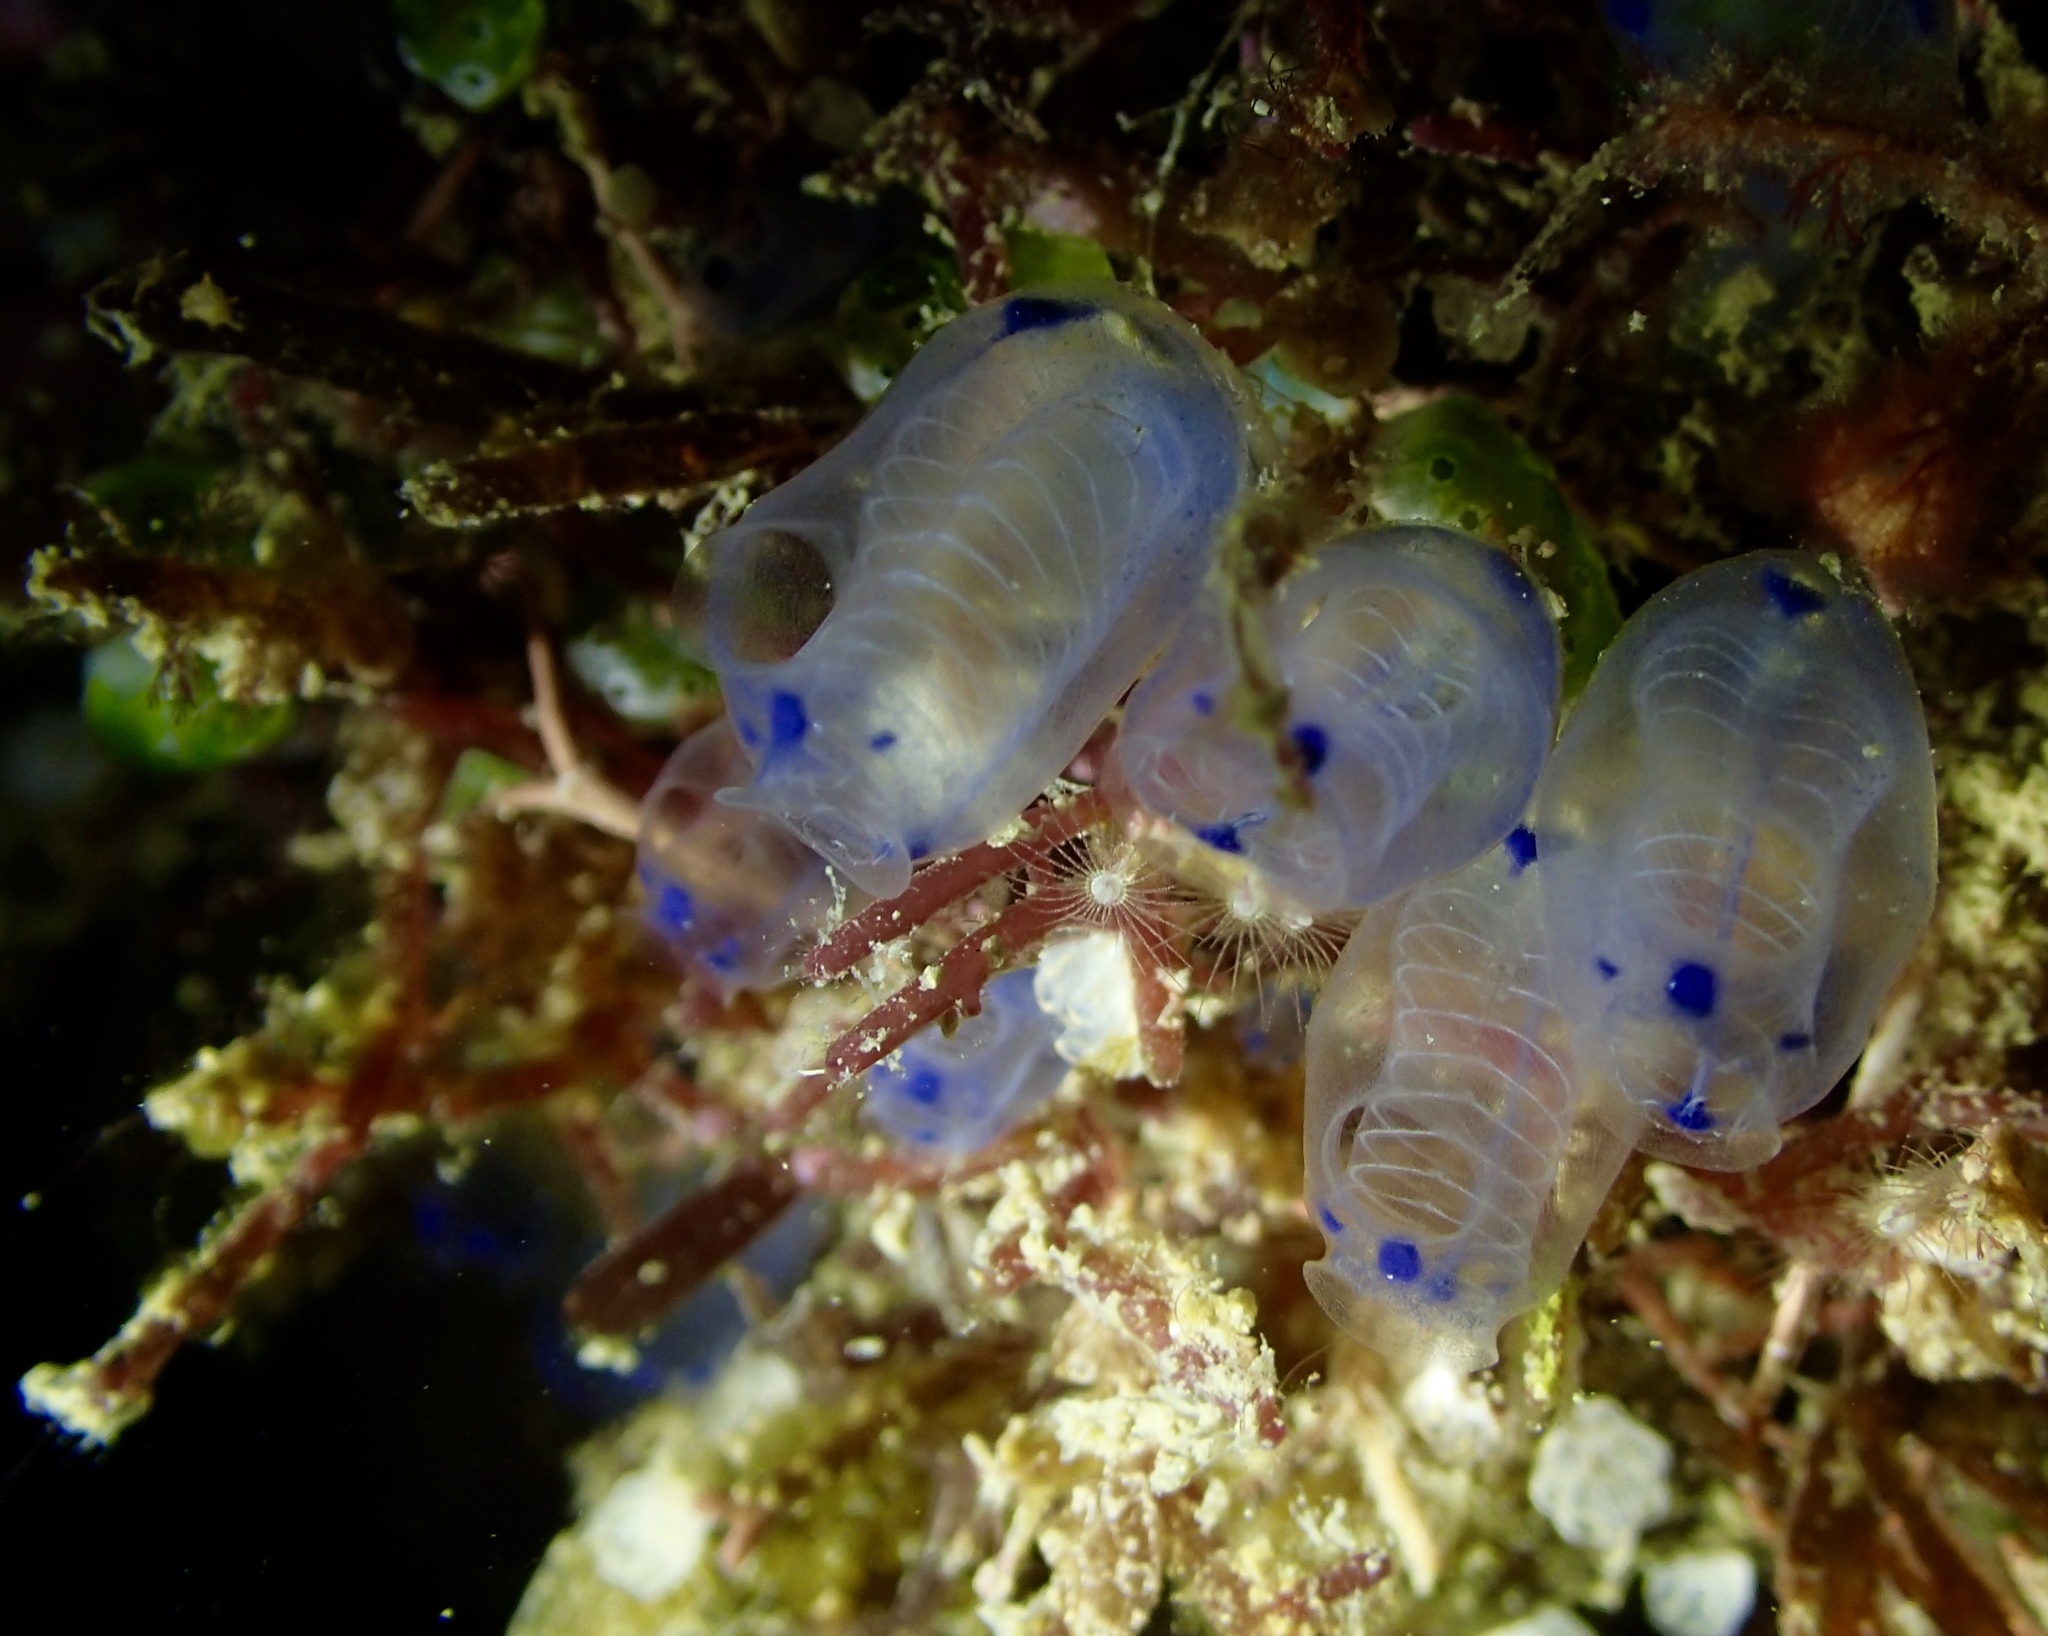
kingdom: Animalia
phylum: Chordata
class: Ascidiacea
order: Aplousobranchia
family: Clavelinidae
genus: Clavelina
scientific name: Clavelina moluccensis
